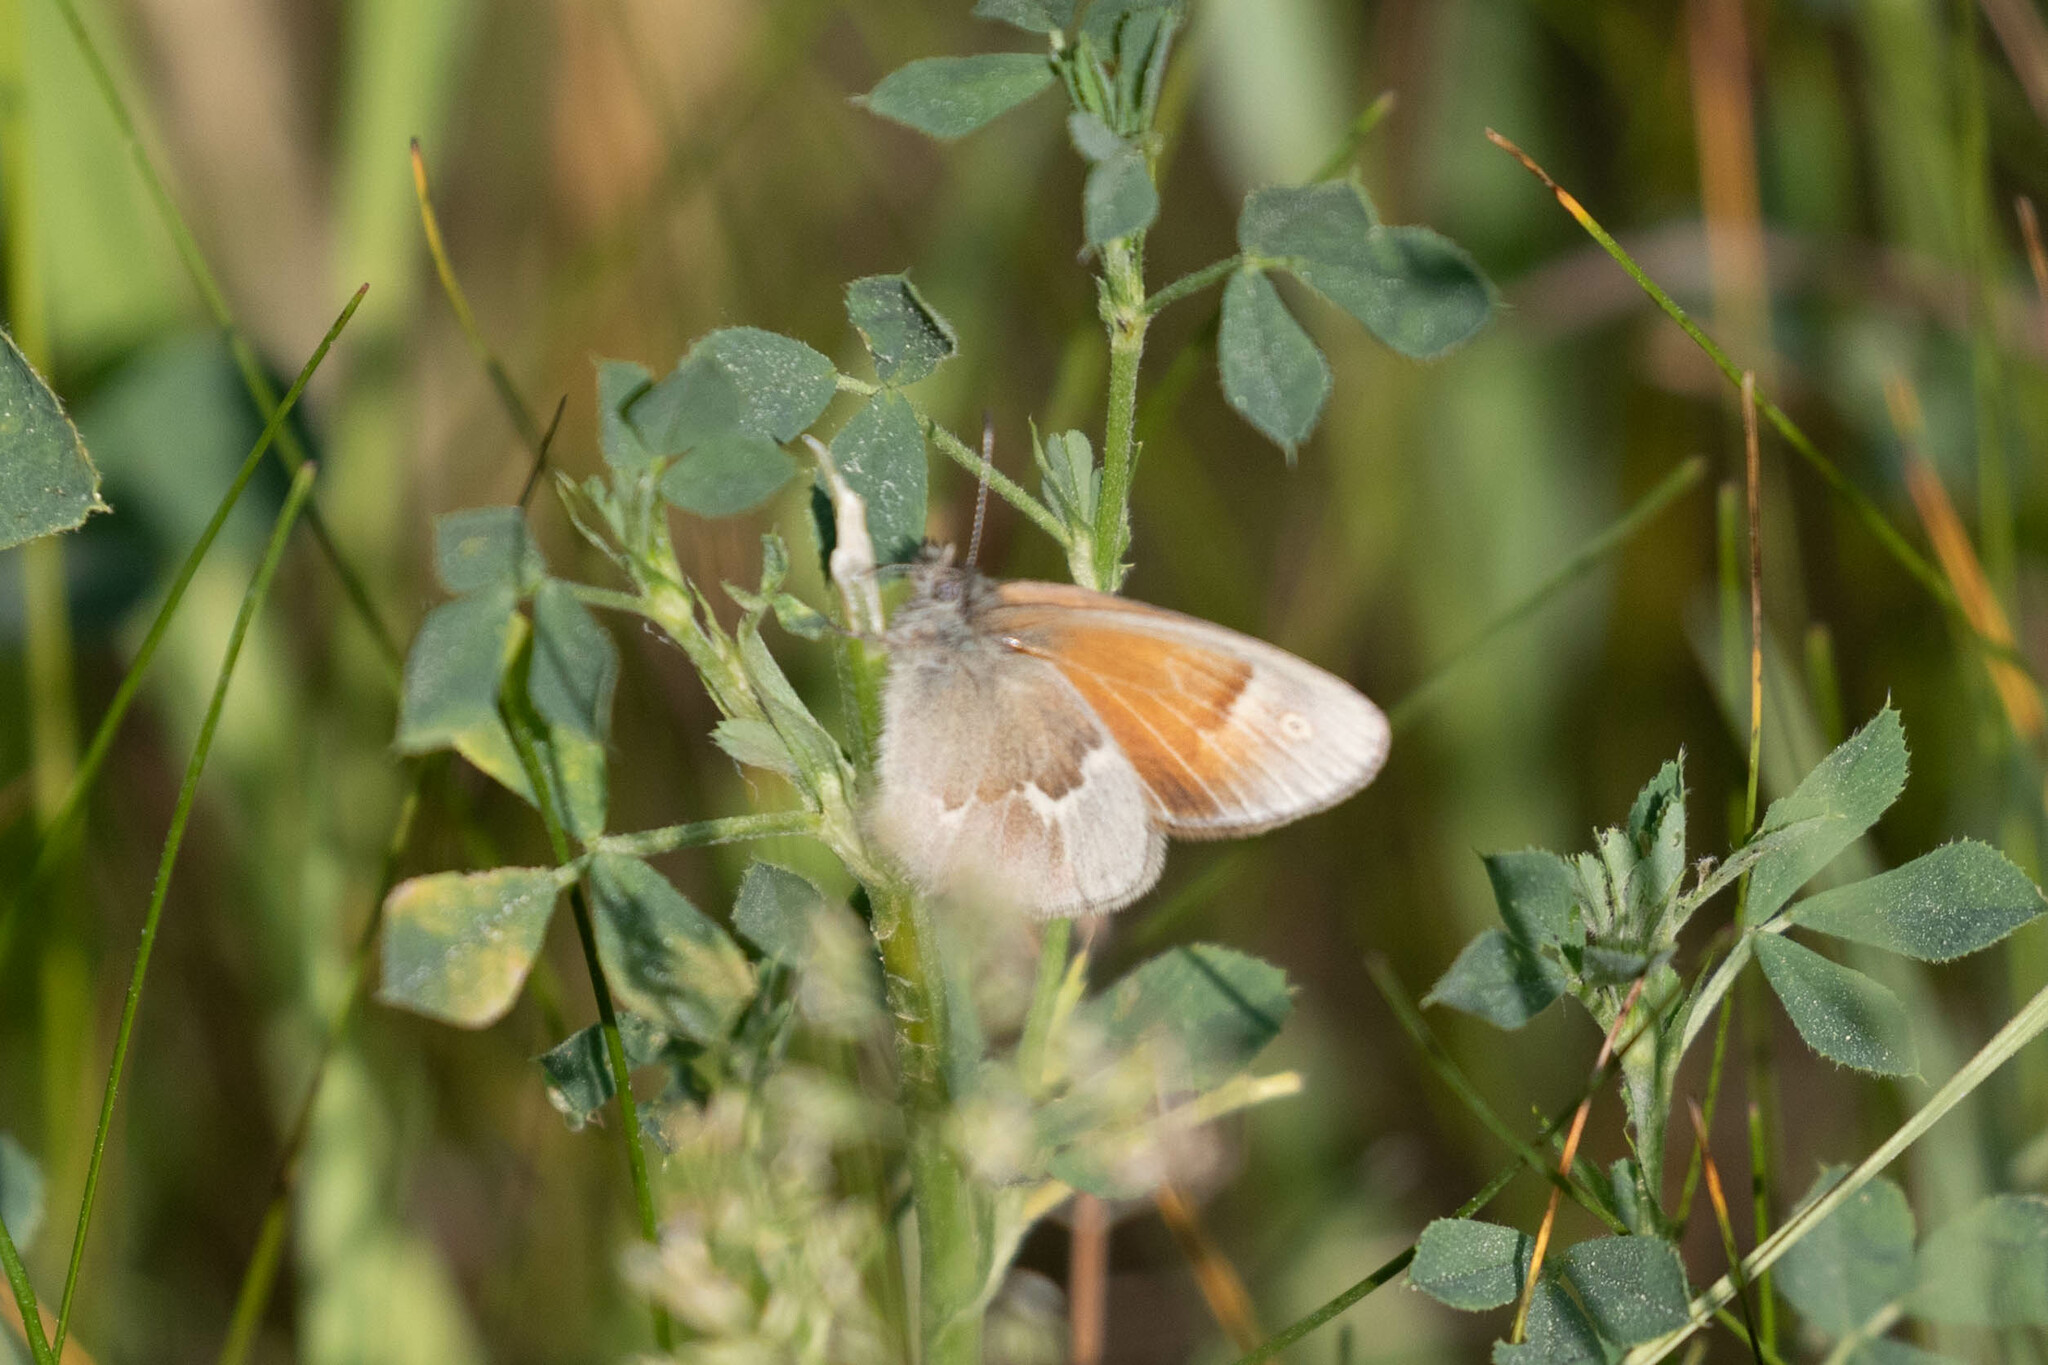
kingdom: Animalia
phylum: Arthropoda
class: Insecta
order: Lepidoptera
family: Nymphalidae
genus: Coenonympha
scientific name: Coenonympha california
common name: Common ringlet
